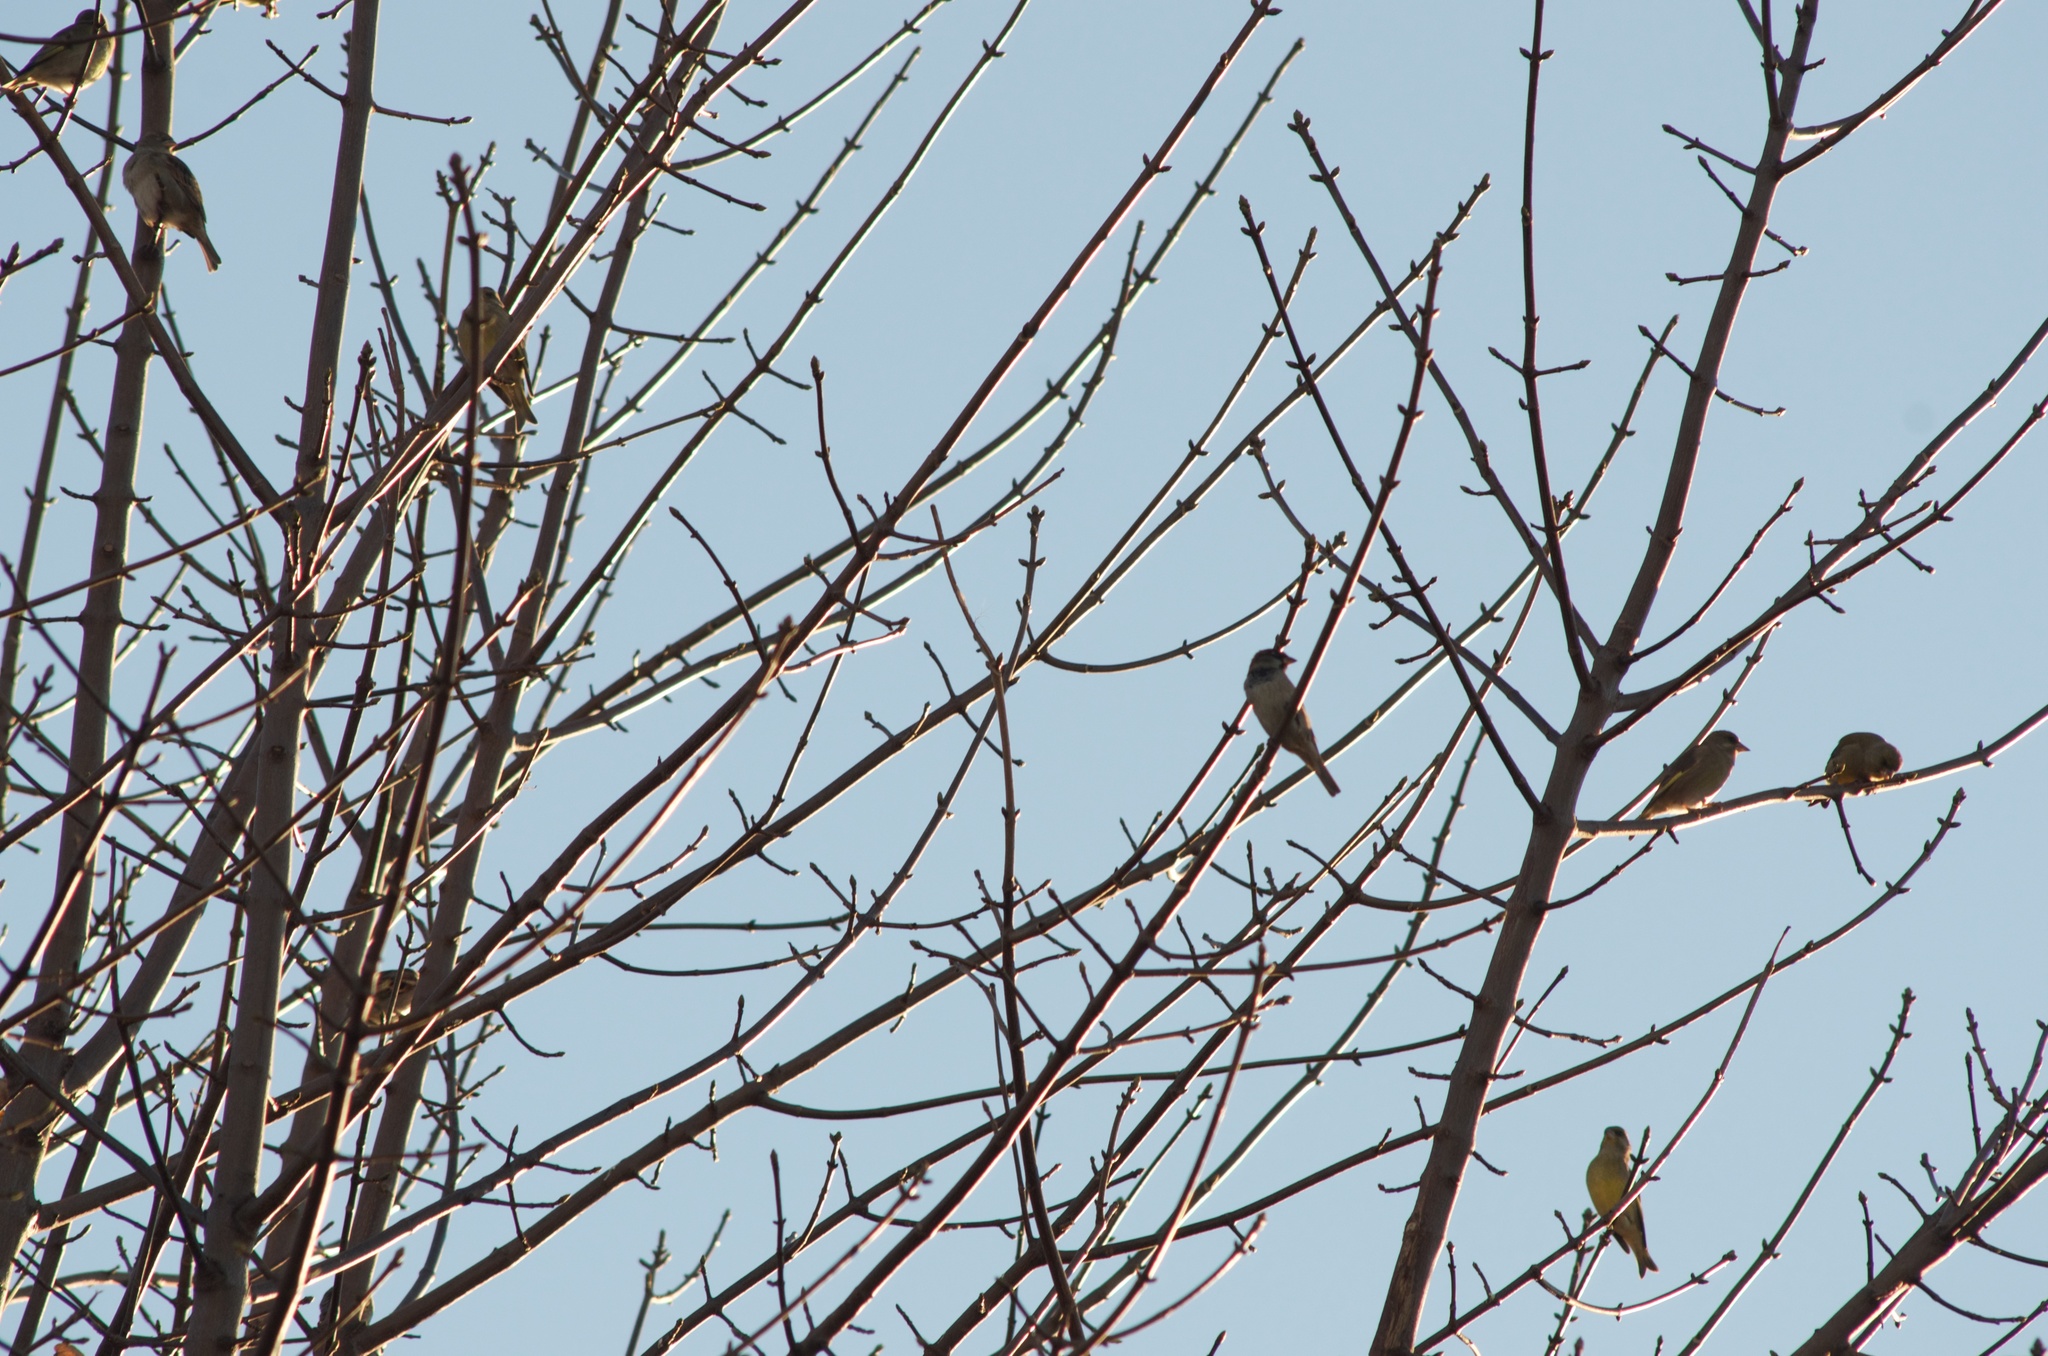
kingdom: Animalia
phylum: Chordata
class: Aves
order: Passeriformes
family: Passeridae
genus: Passer
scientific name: Passer domesticus
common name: House sparrow
